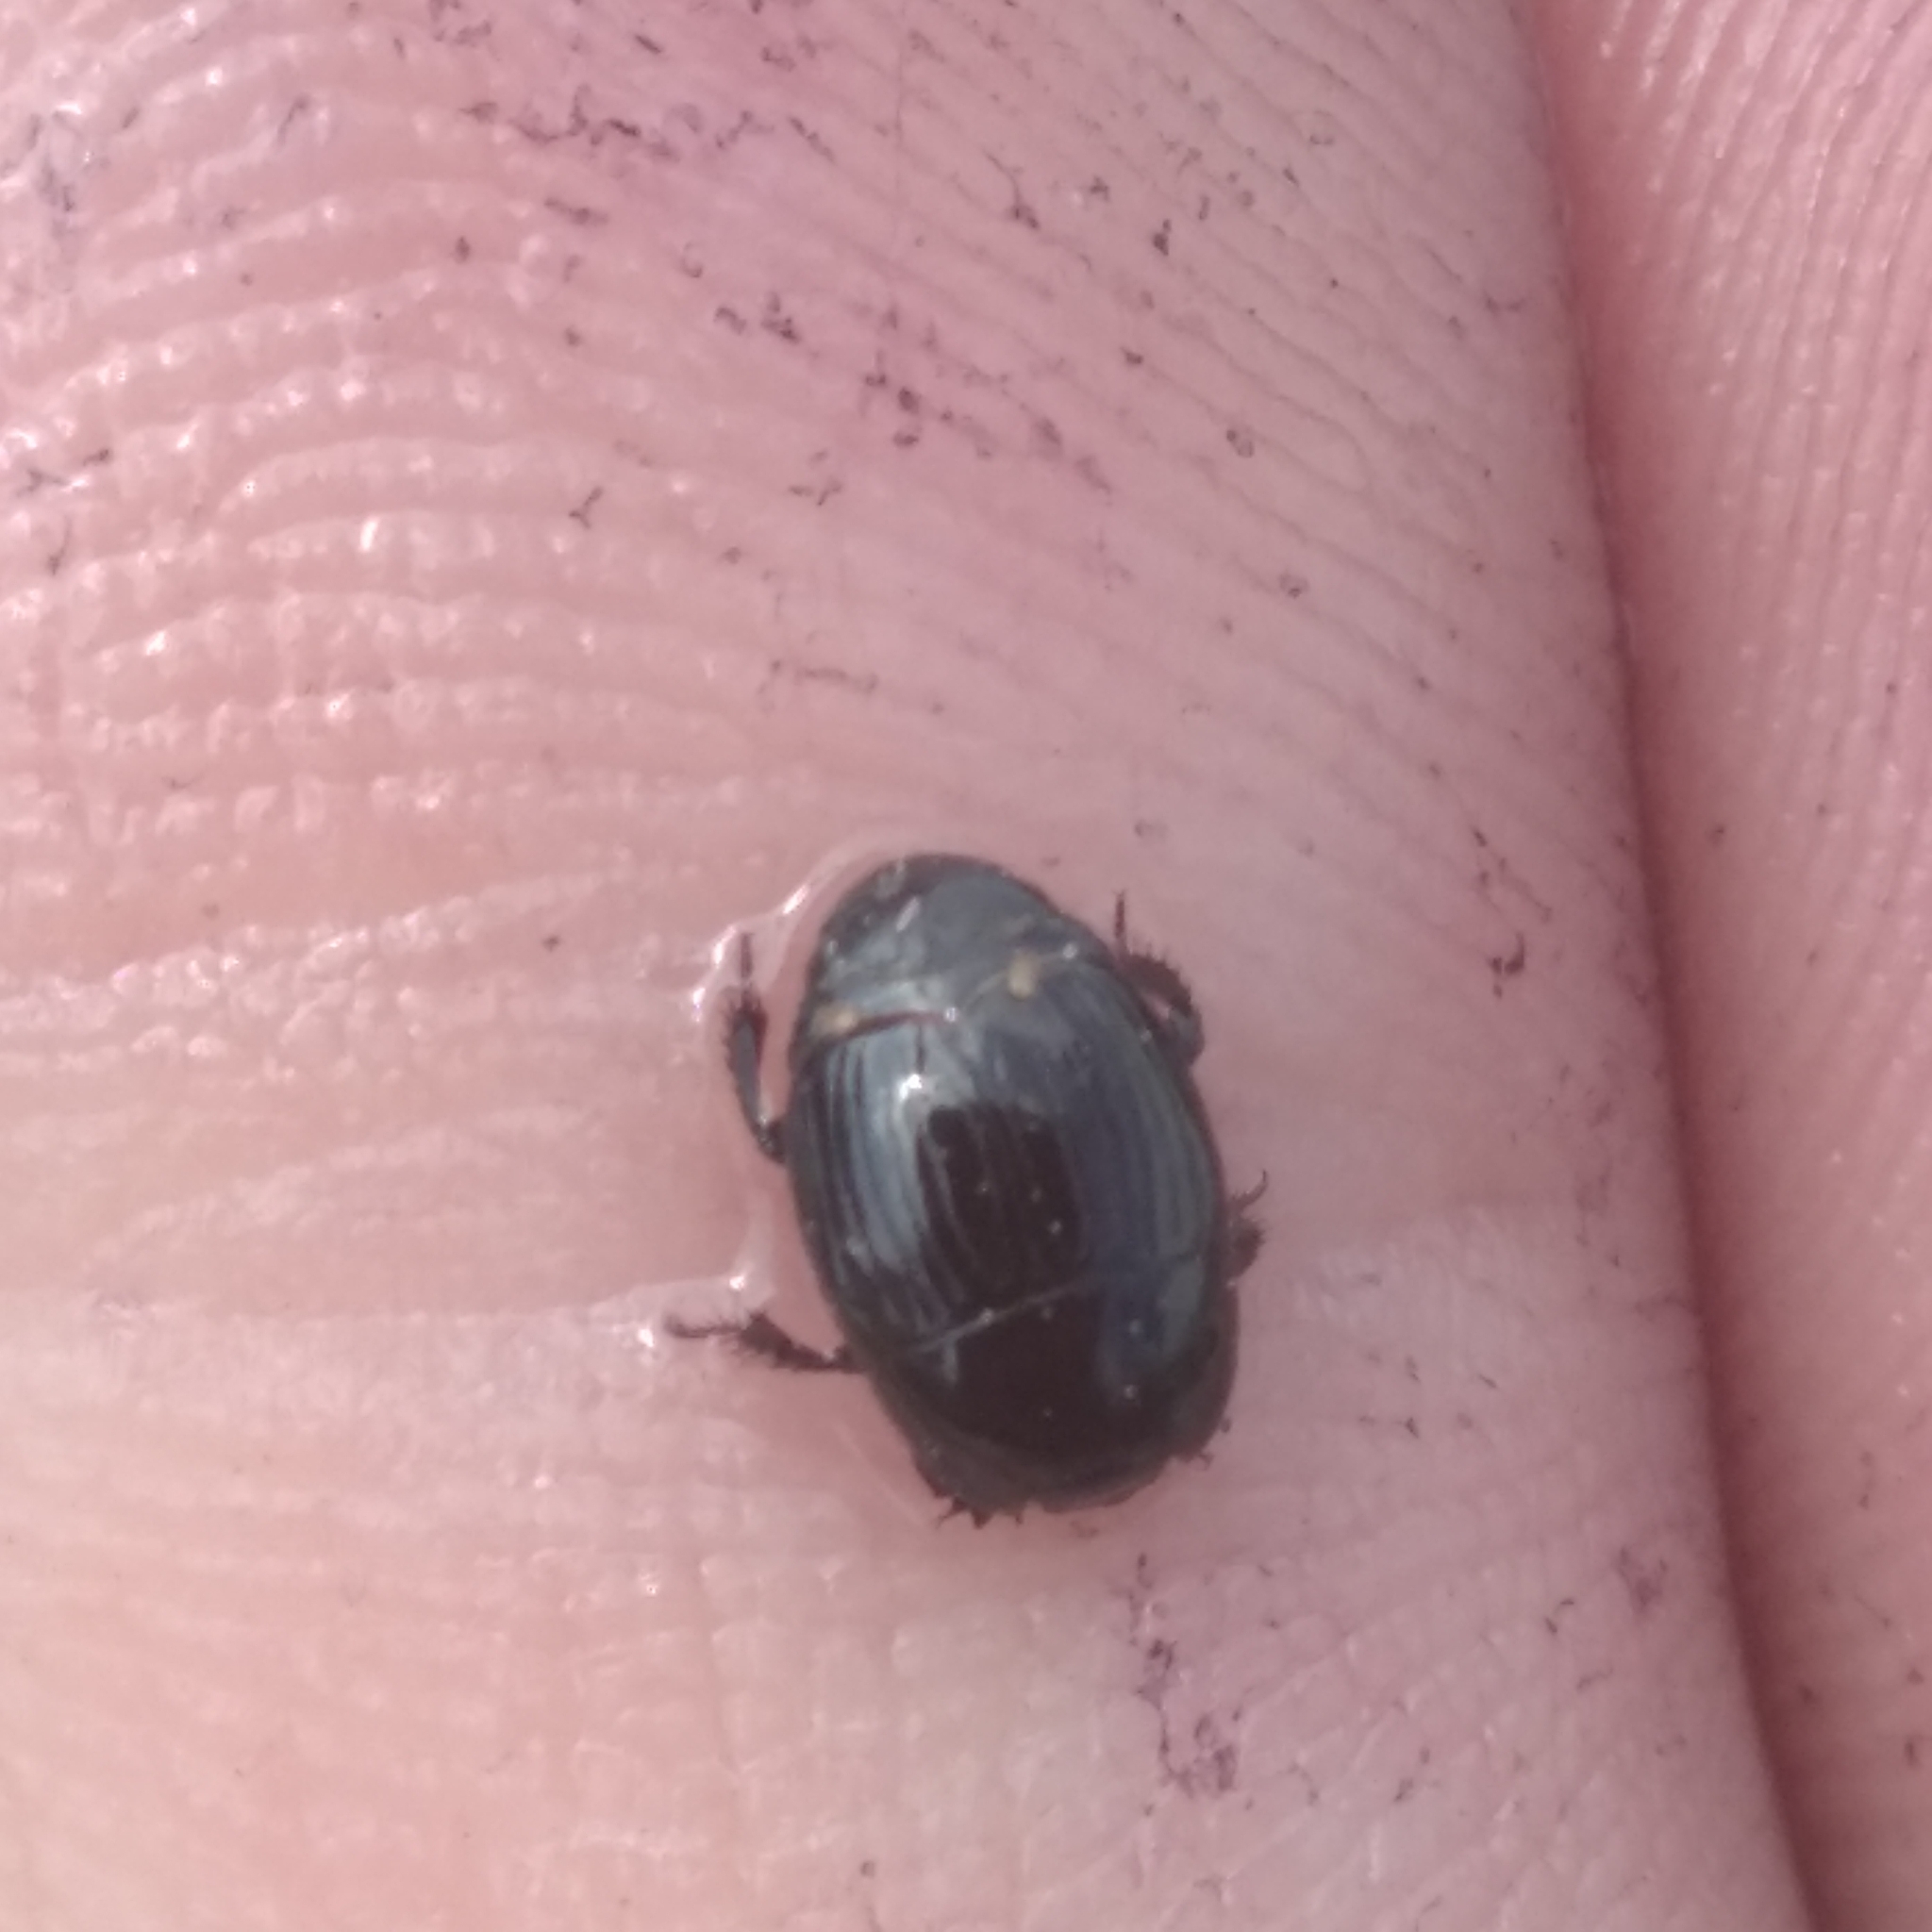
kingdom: Animalia
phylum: Arthropoda
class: Insecta
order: Coleoptera
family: Histeridae
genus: Atholus
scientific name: Atholus duodecimstriatus
